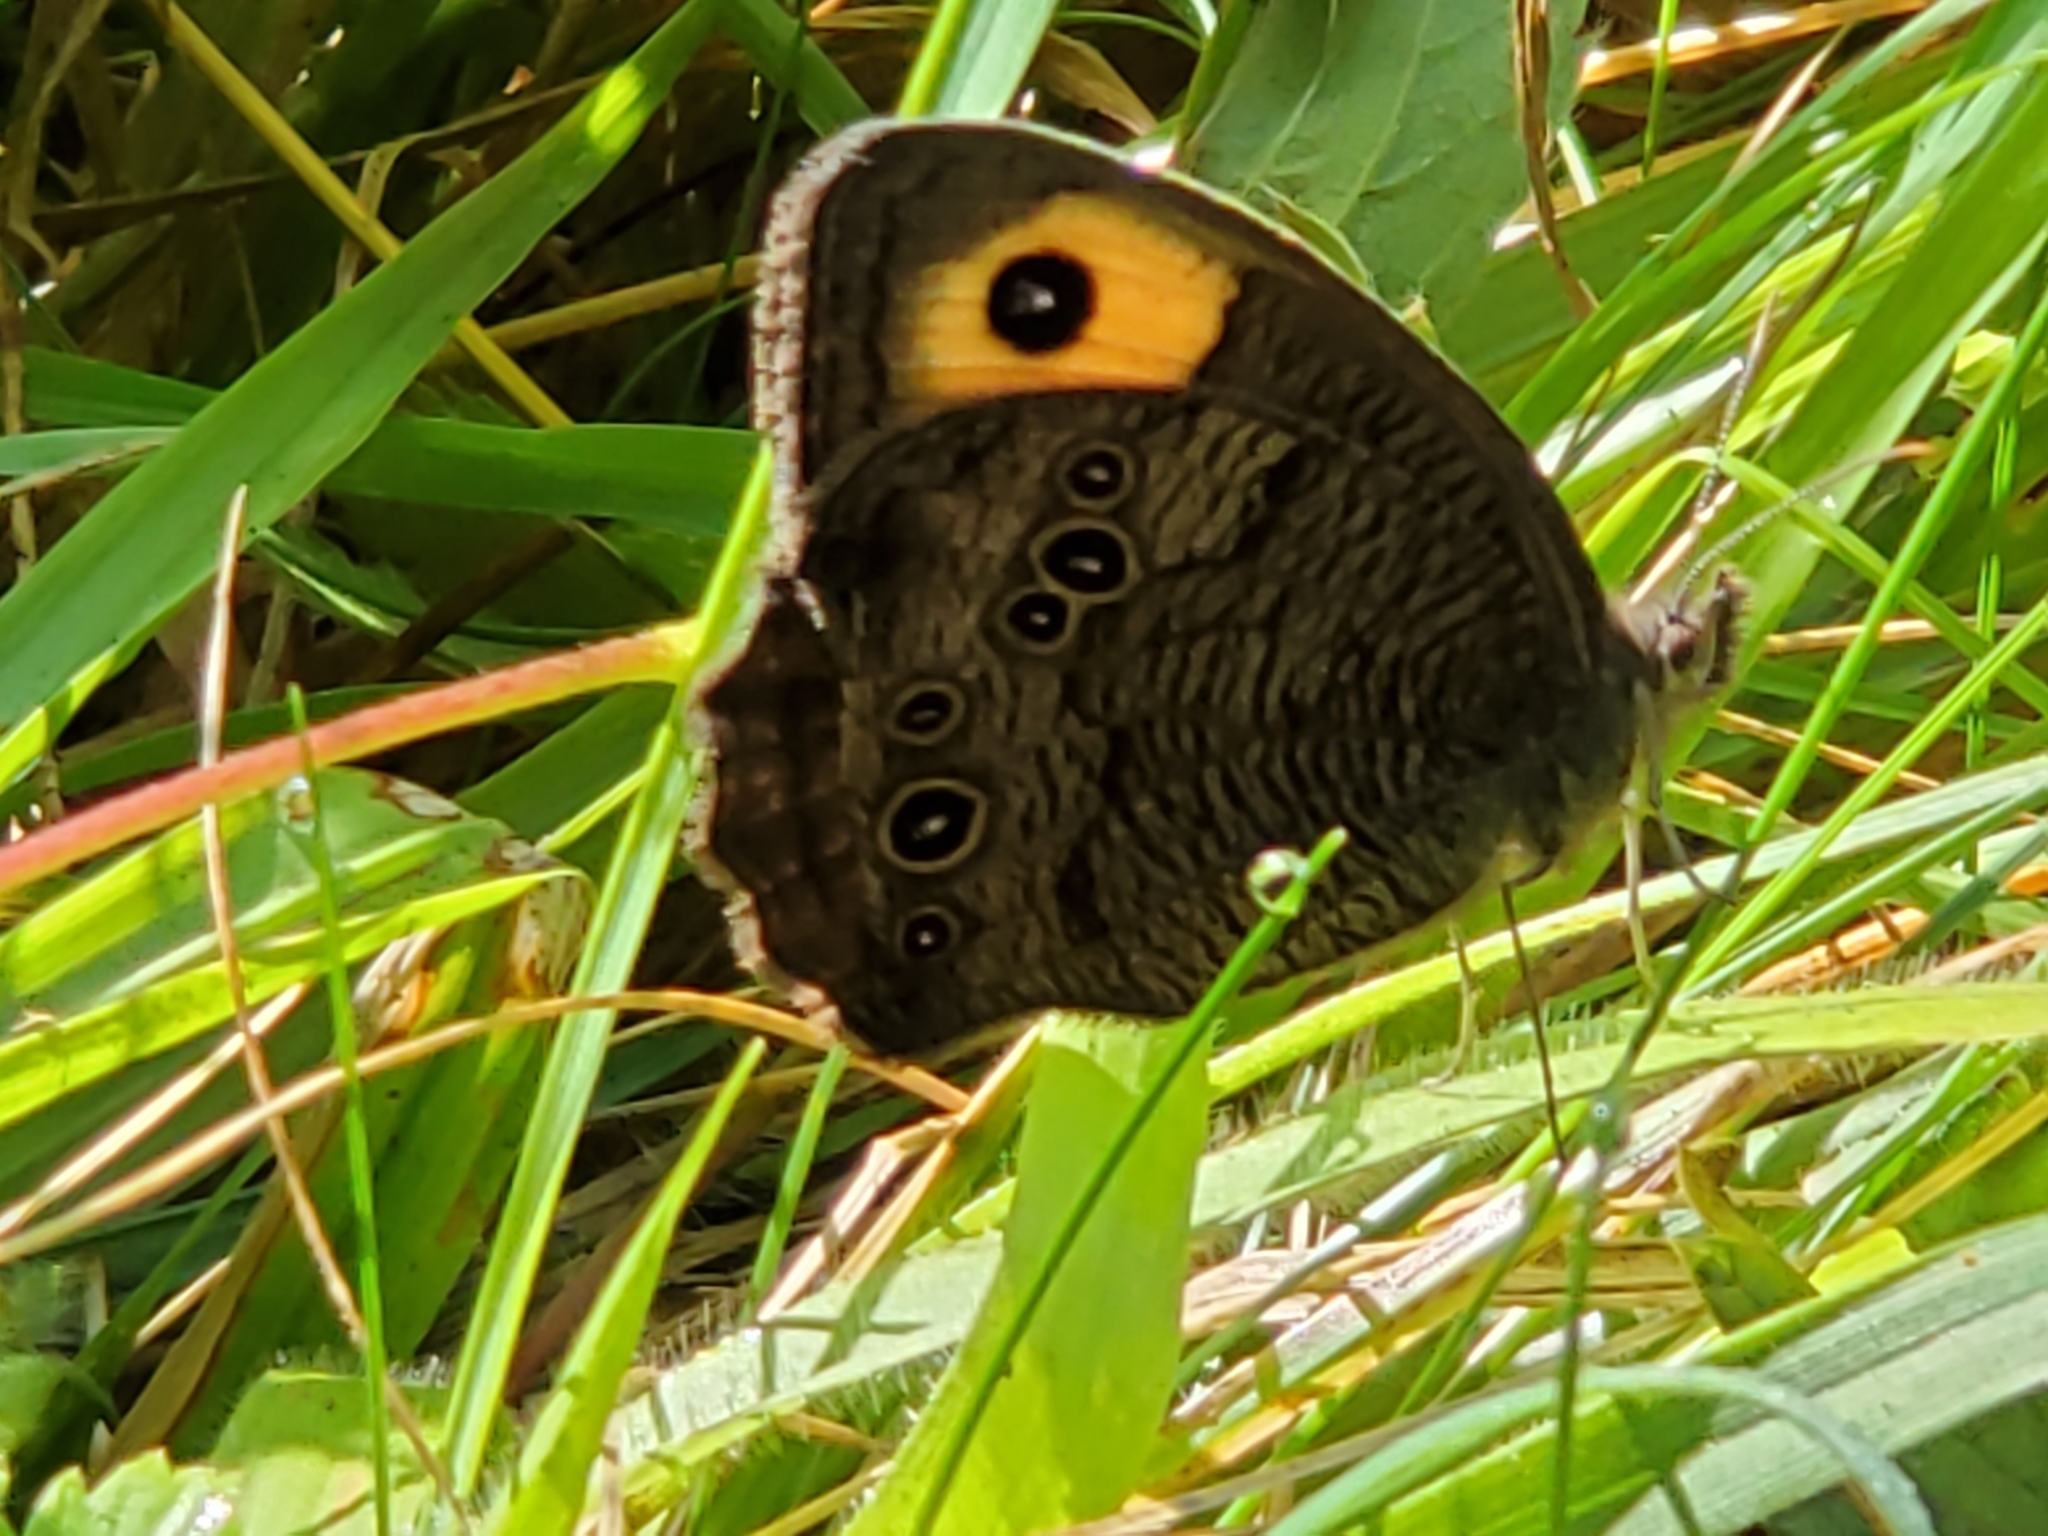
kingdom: Animalia
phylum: Arthropoda
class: Insecta
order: Lepidoptera
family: Nymphalidae
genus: Cercyonis
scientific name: Cercyonis pegala
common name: Common wood-nymph
